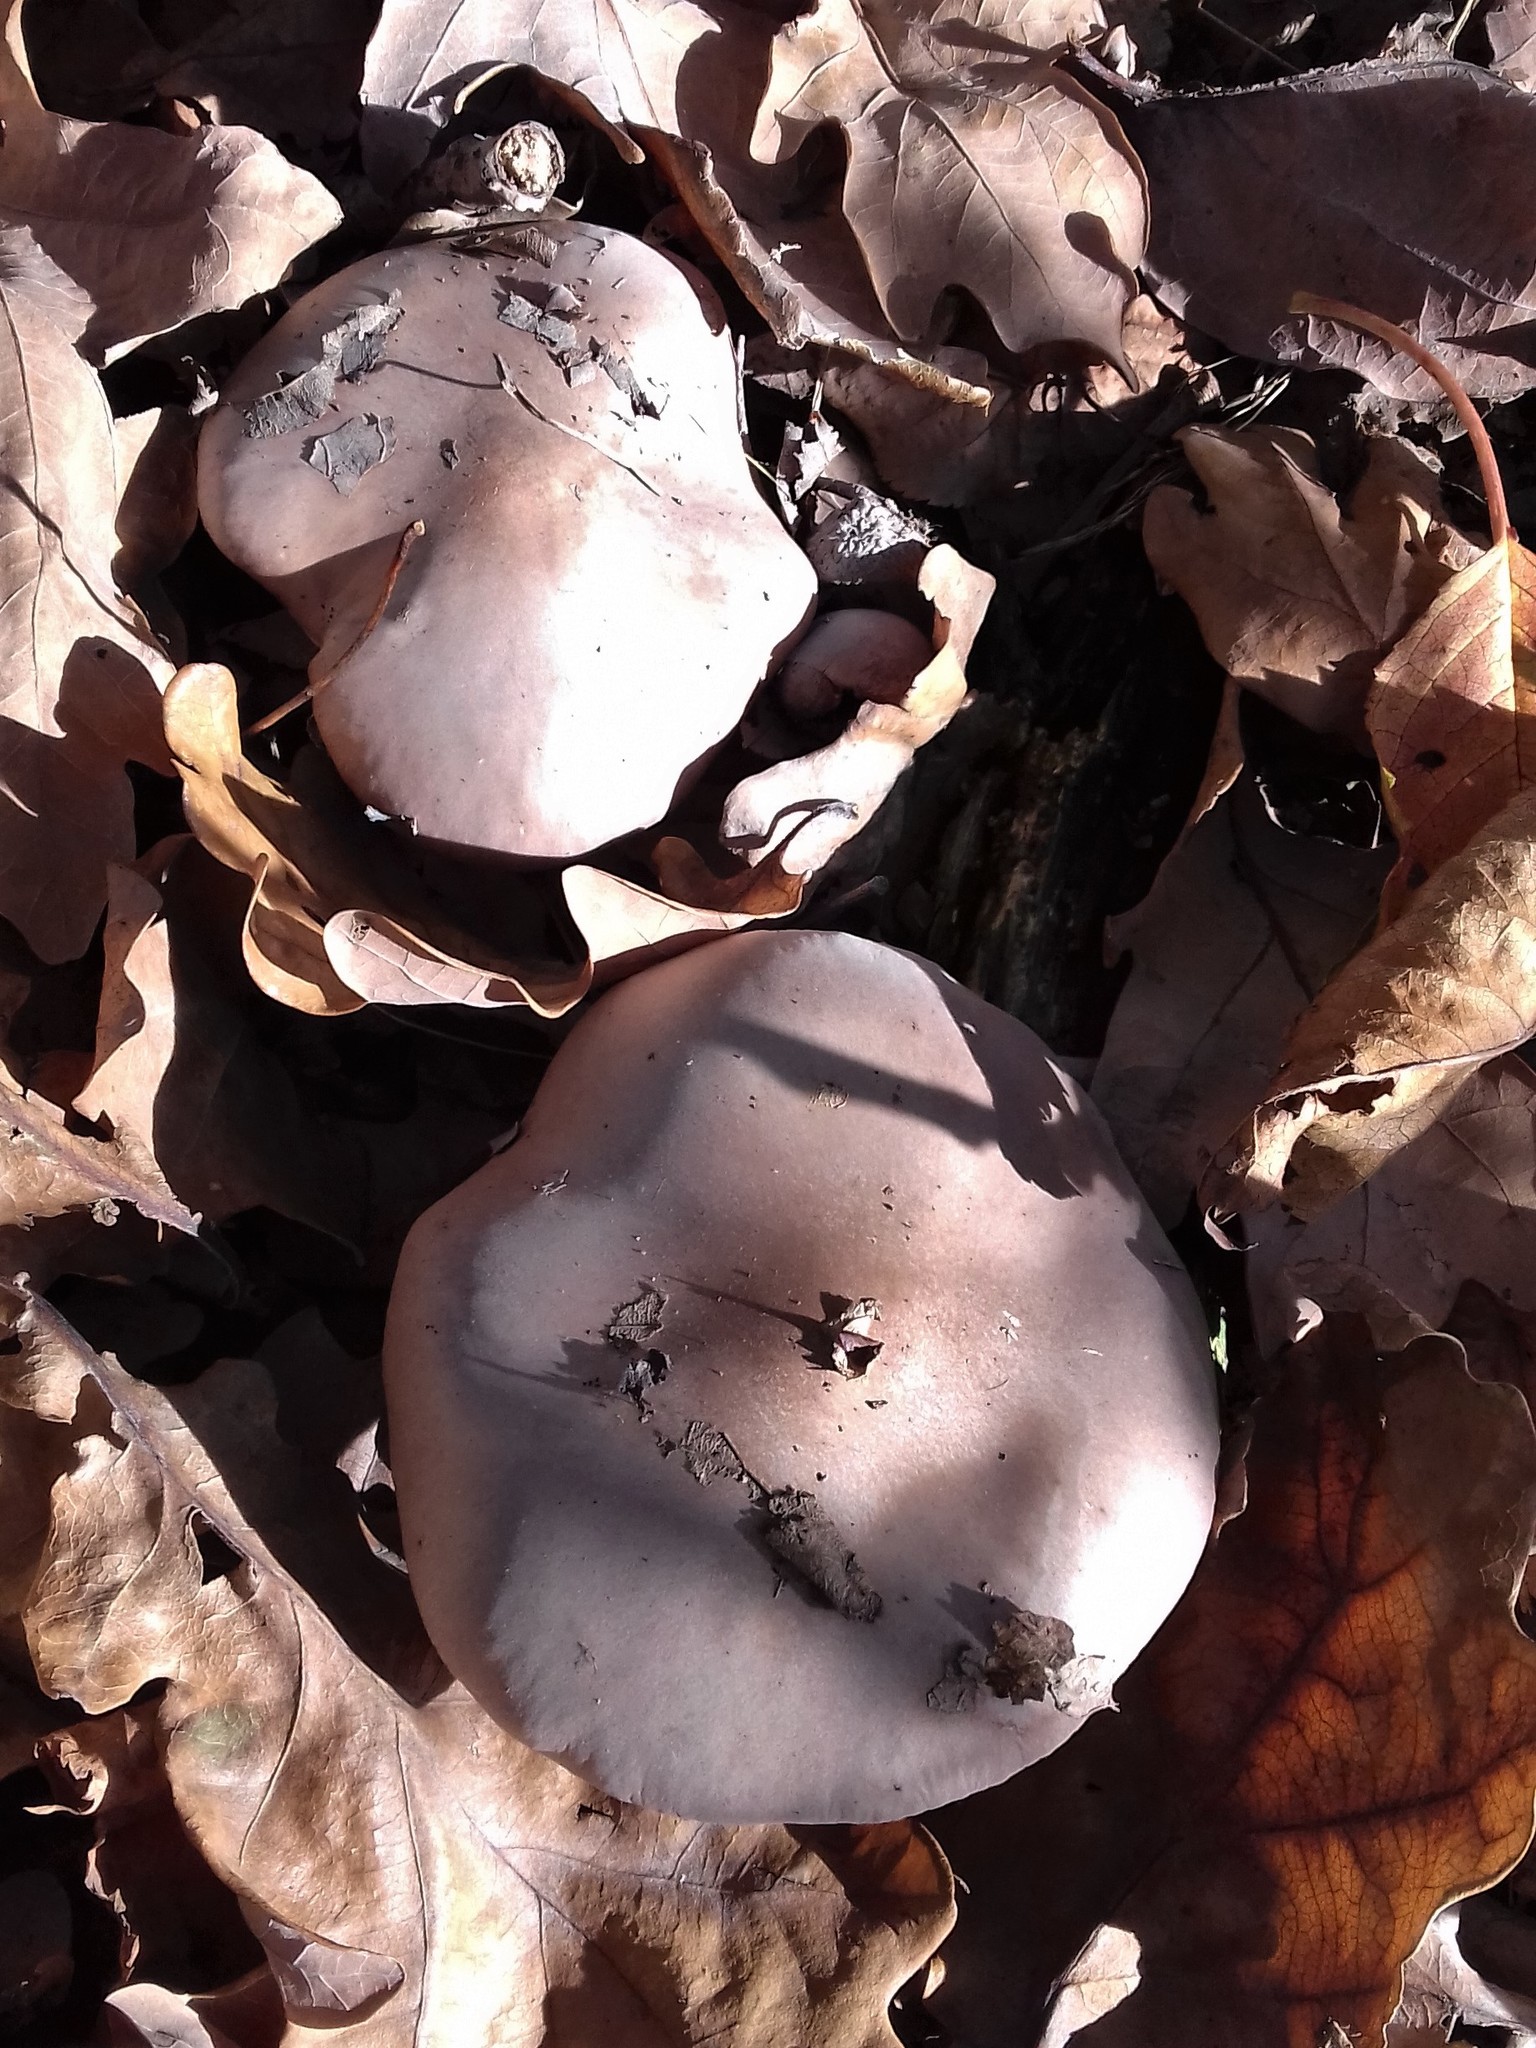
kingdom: Fungi
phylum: Basidiomycota
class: Agaricomycetes
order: Agaricales
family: Tricholomataceae
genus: Collybia
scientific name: Collybia
